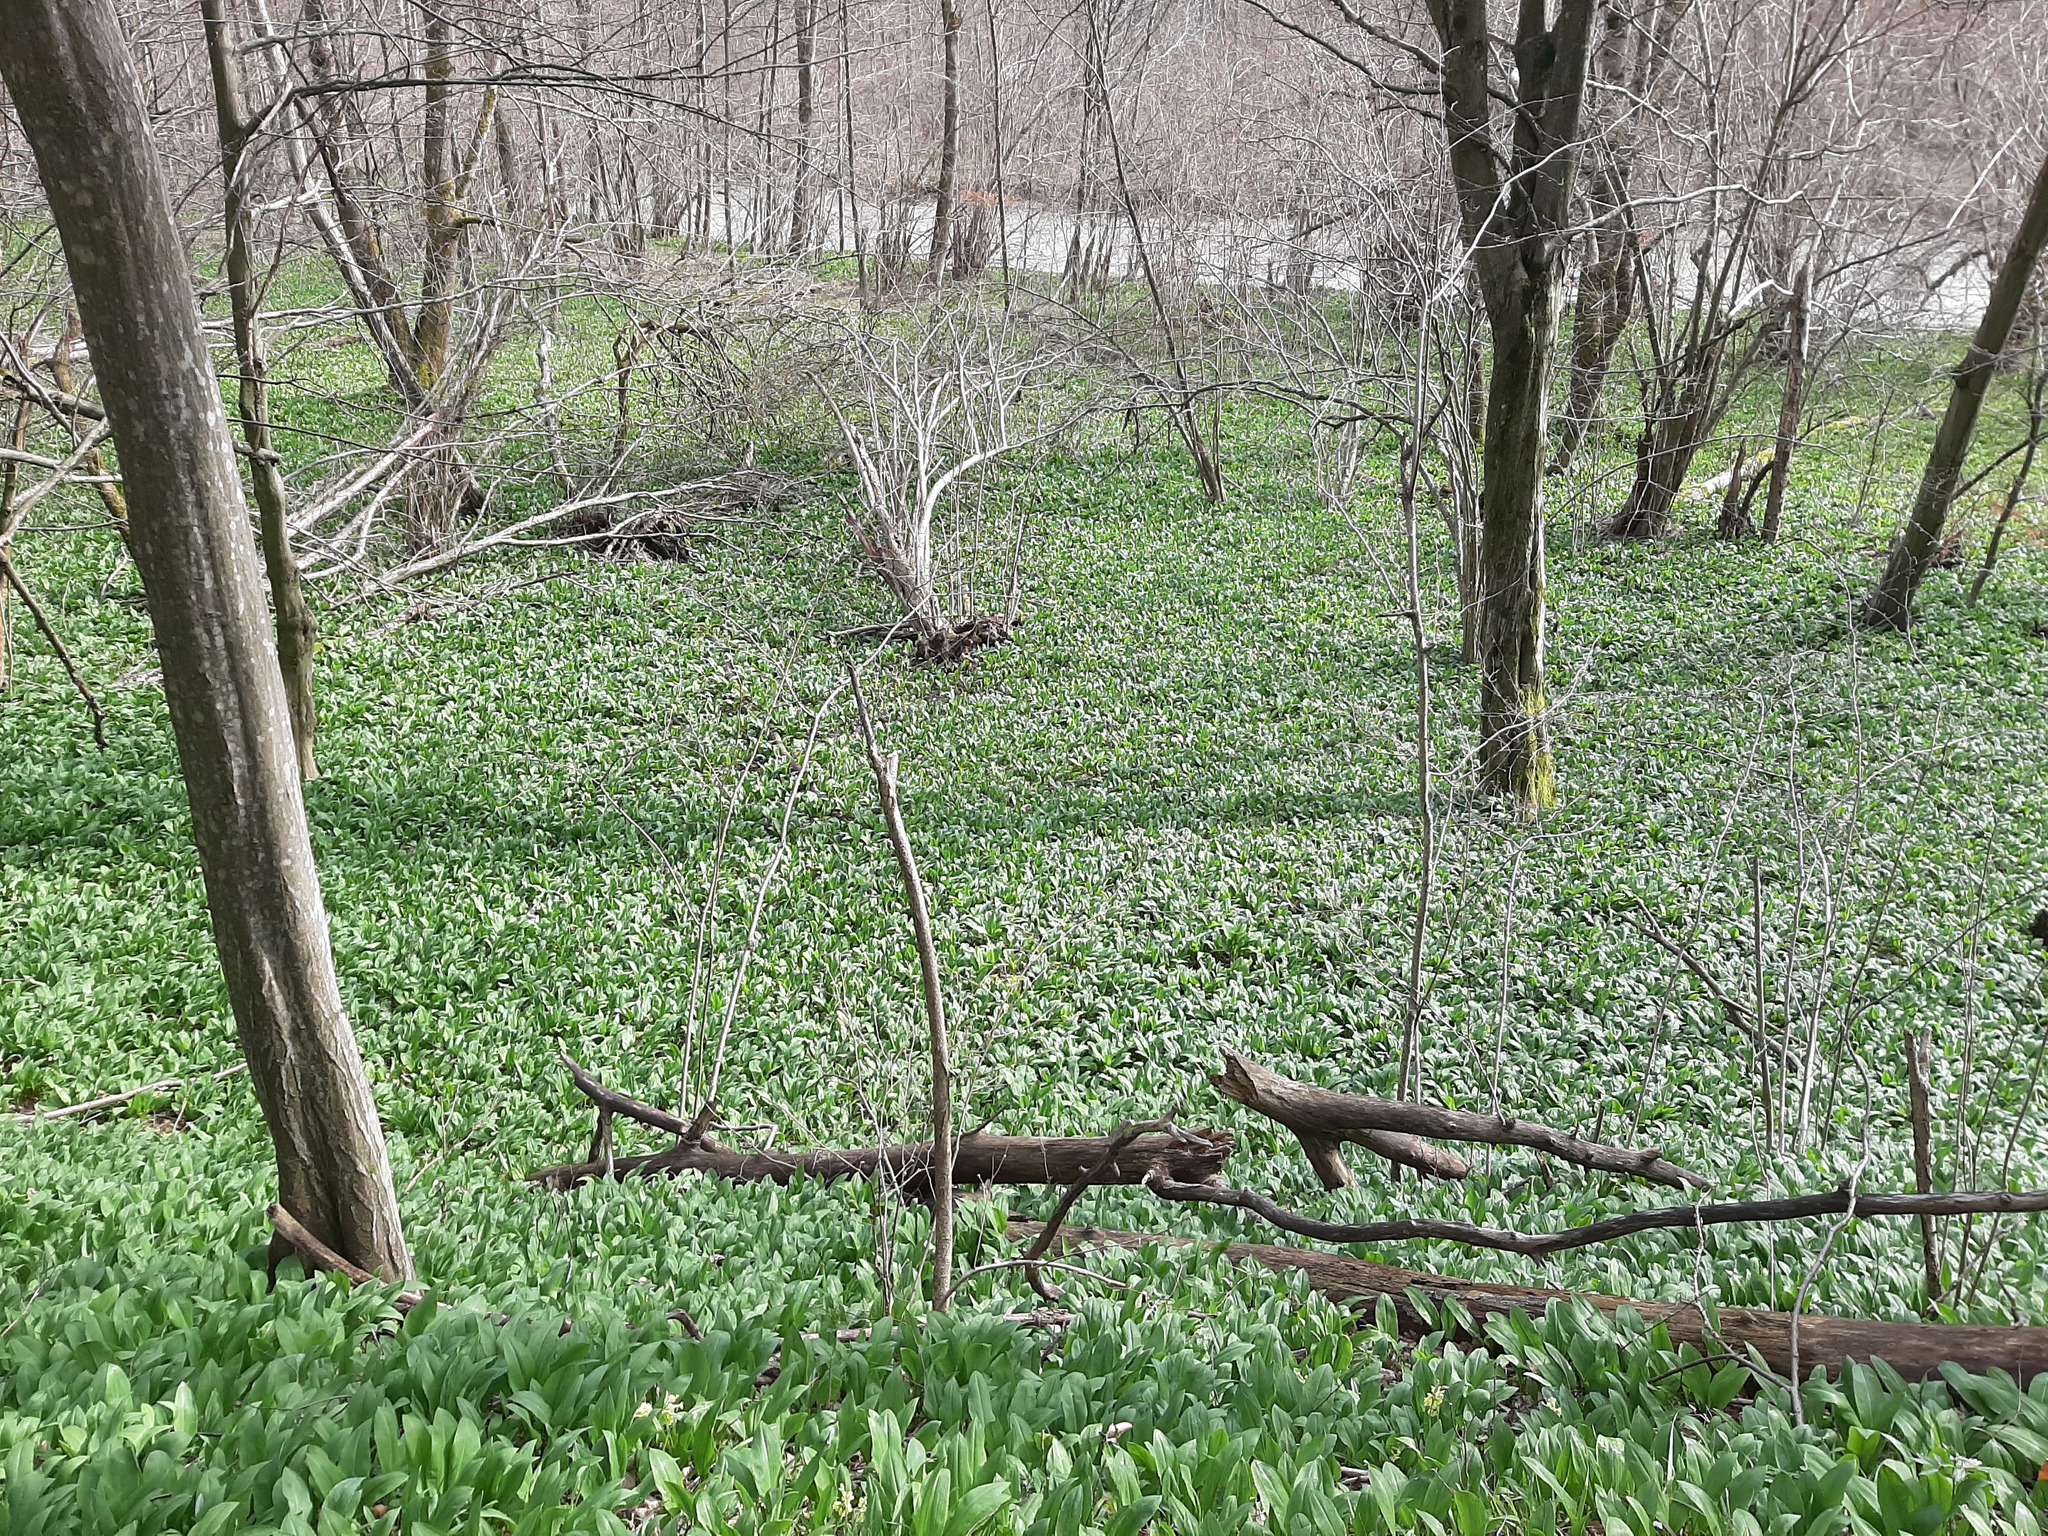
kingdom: Plantae
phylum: Tracheophyta
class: Liliopsida
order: Asparagales
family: Amaryllidaceae
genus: Allium
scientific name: Allium ursinum
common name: Ramsons
